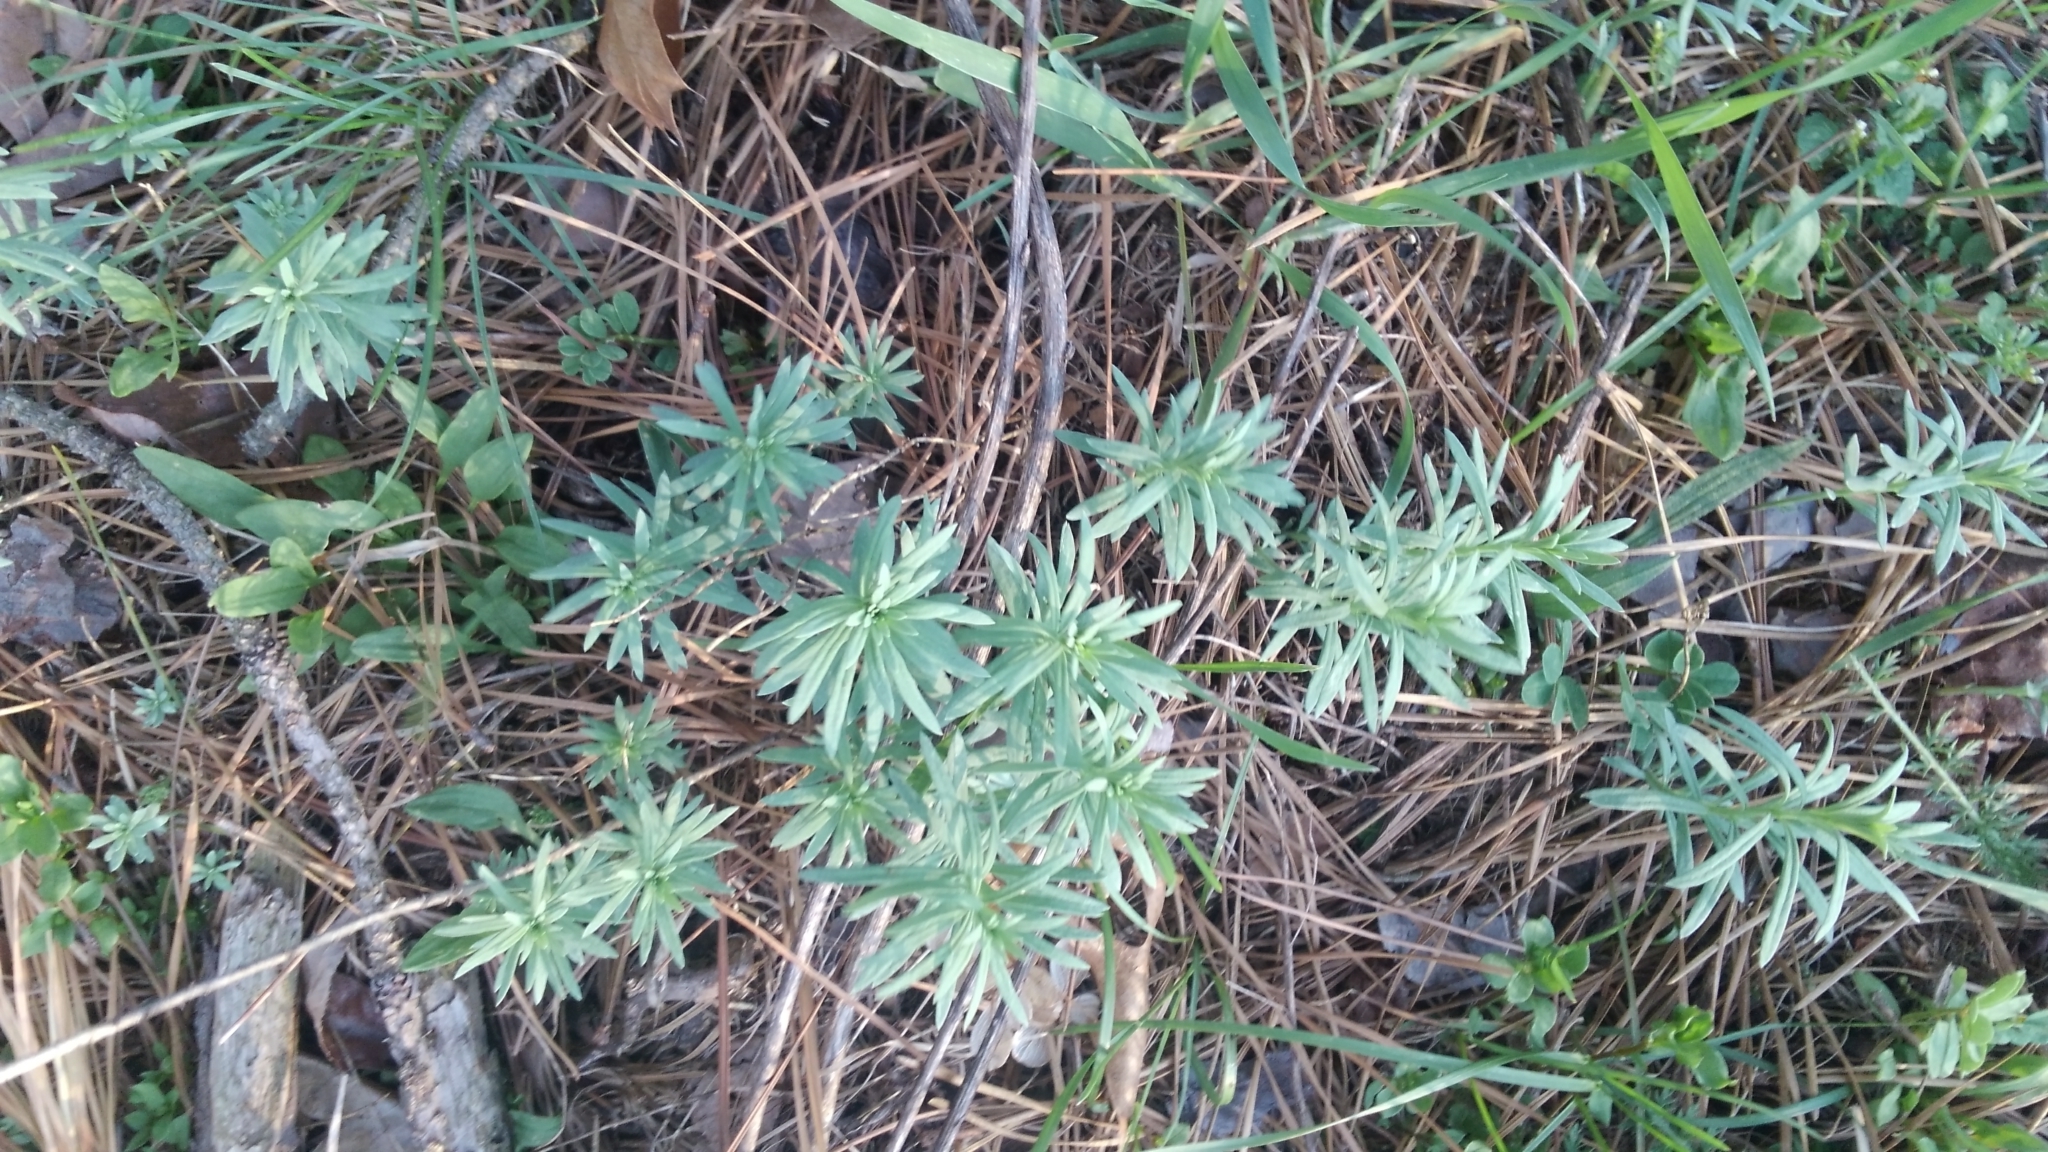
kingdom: Plantae
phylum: Tracheophyta
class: Magnoliopsida
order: Lamiales
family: Plantaginaceae
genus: Linaria
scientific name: Linaria vulgaris
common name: Butter and eggs
